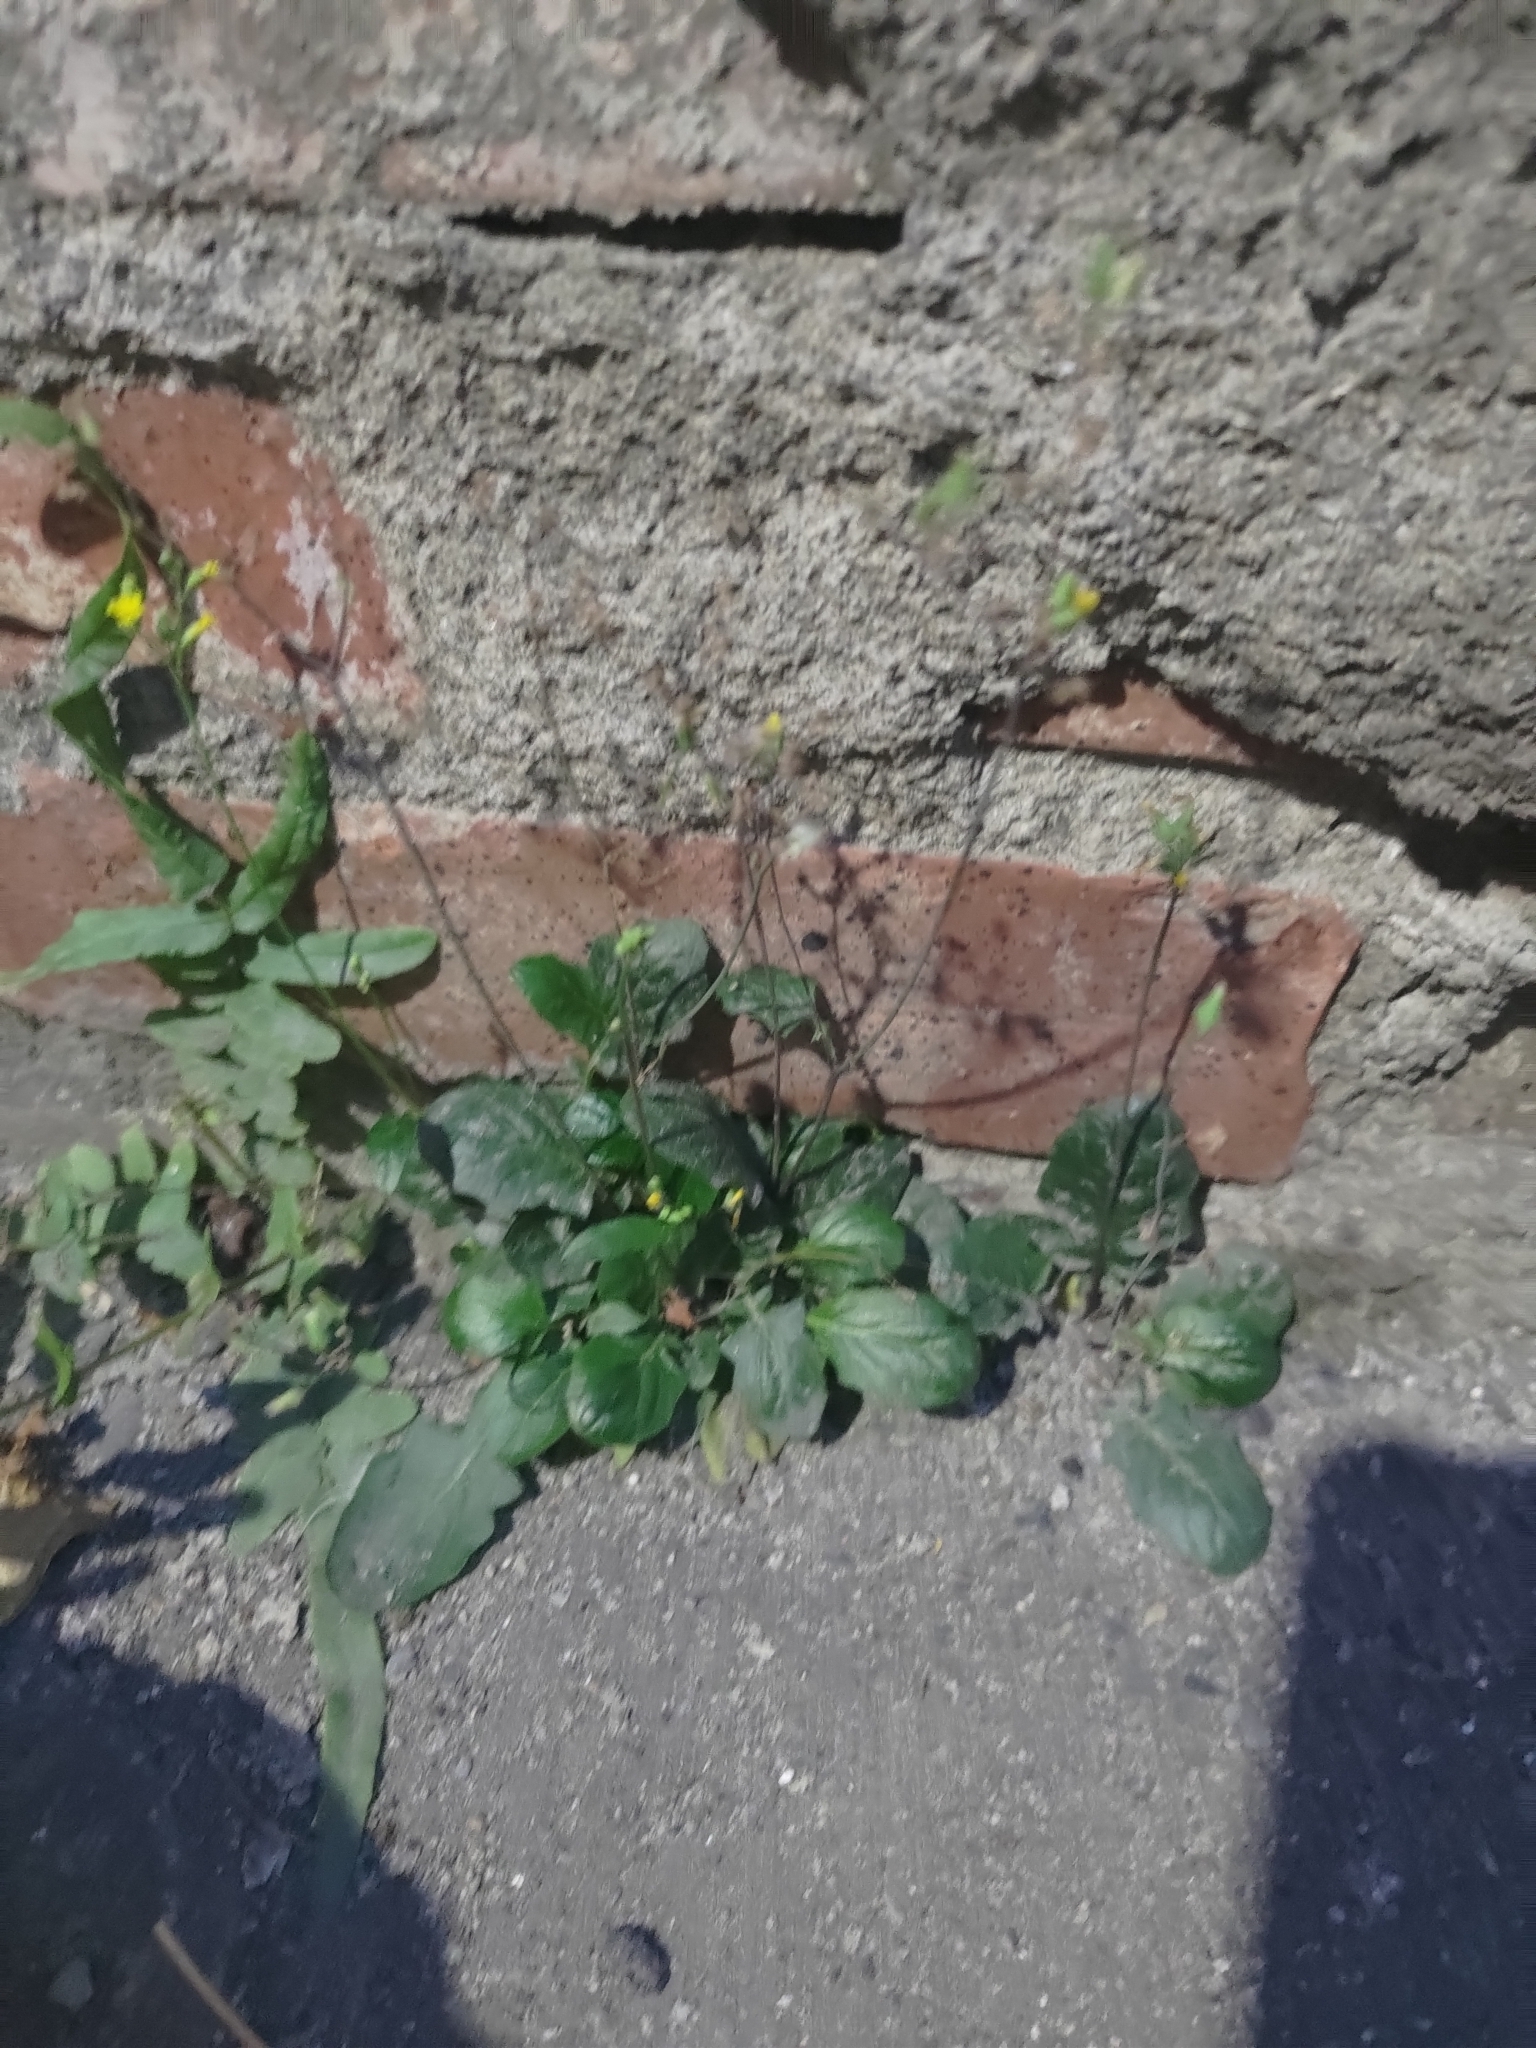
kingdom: Plantae
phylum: Tracheophyta
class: Magnoliopsida
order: Asterales
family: Asteraceae
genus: Youngia
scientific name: Youngia japonica
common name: Oriental false hawksbeard
